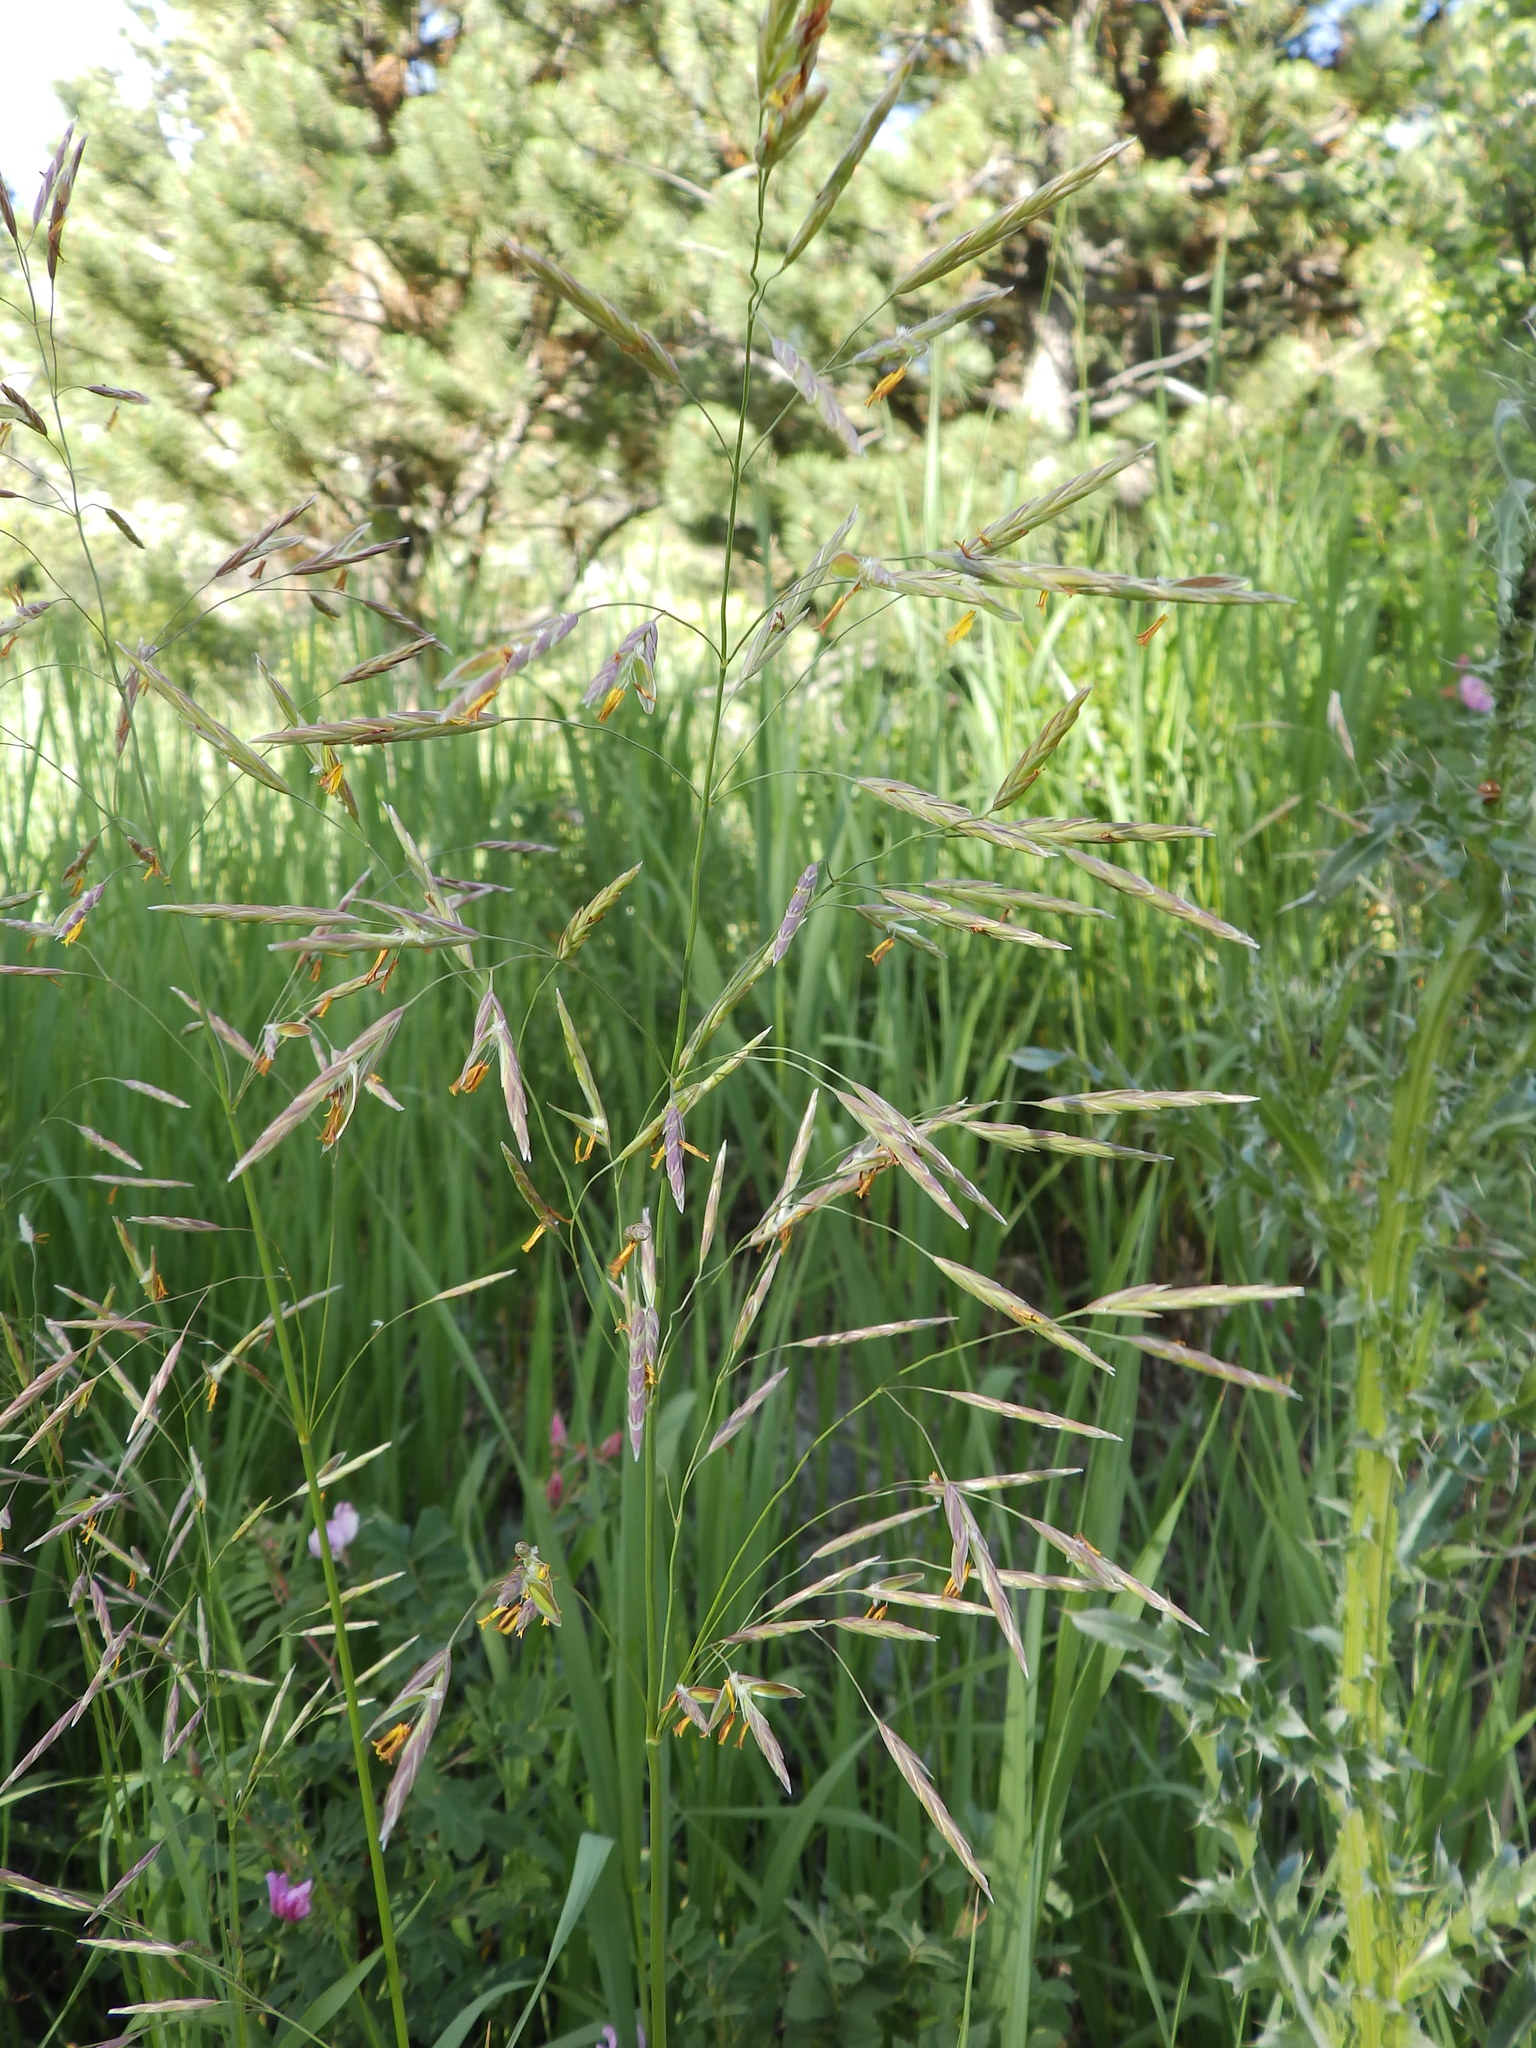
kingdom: Plantae
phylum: Tracheophyta
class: Liliopsida
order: Poales
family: Poaceae
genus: Bromus
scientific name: Bromus inermis
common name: Smooth brome
